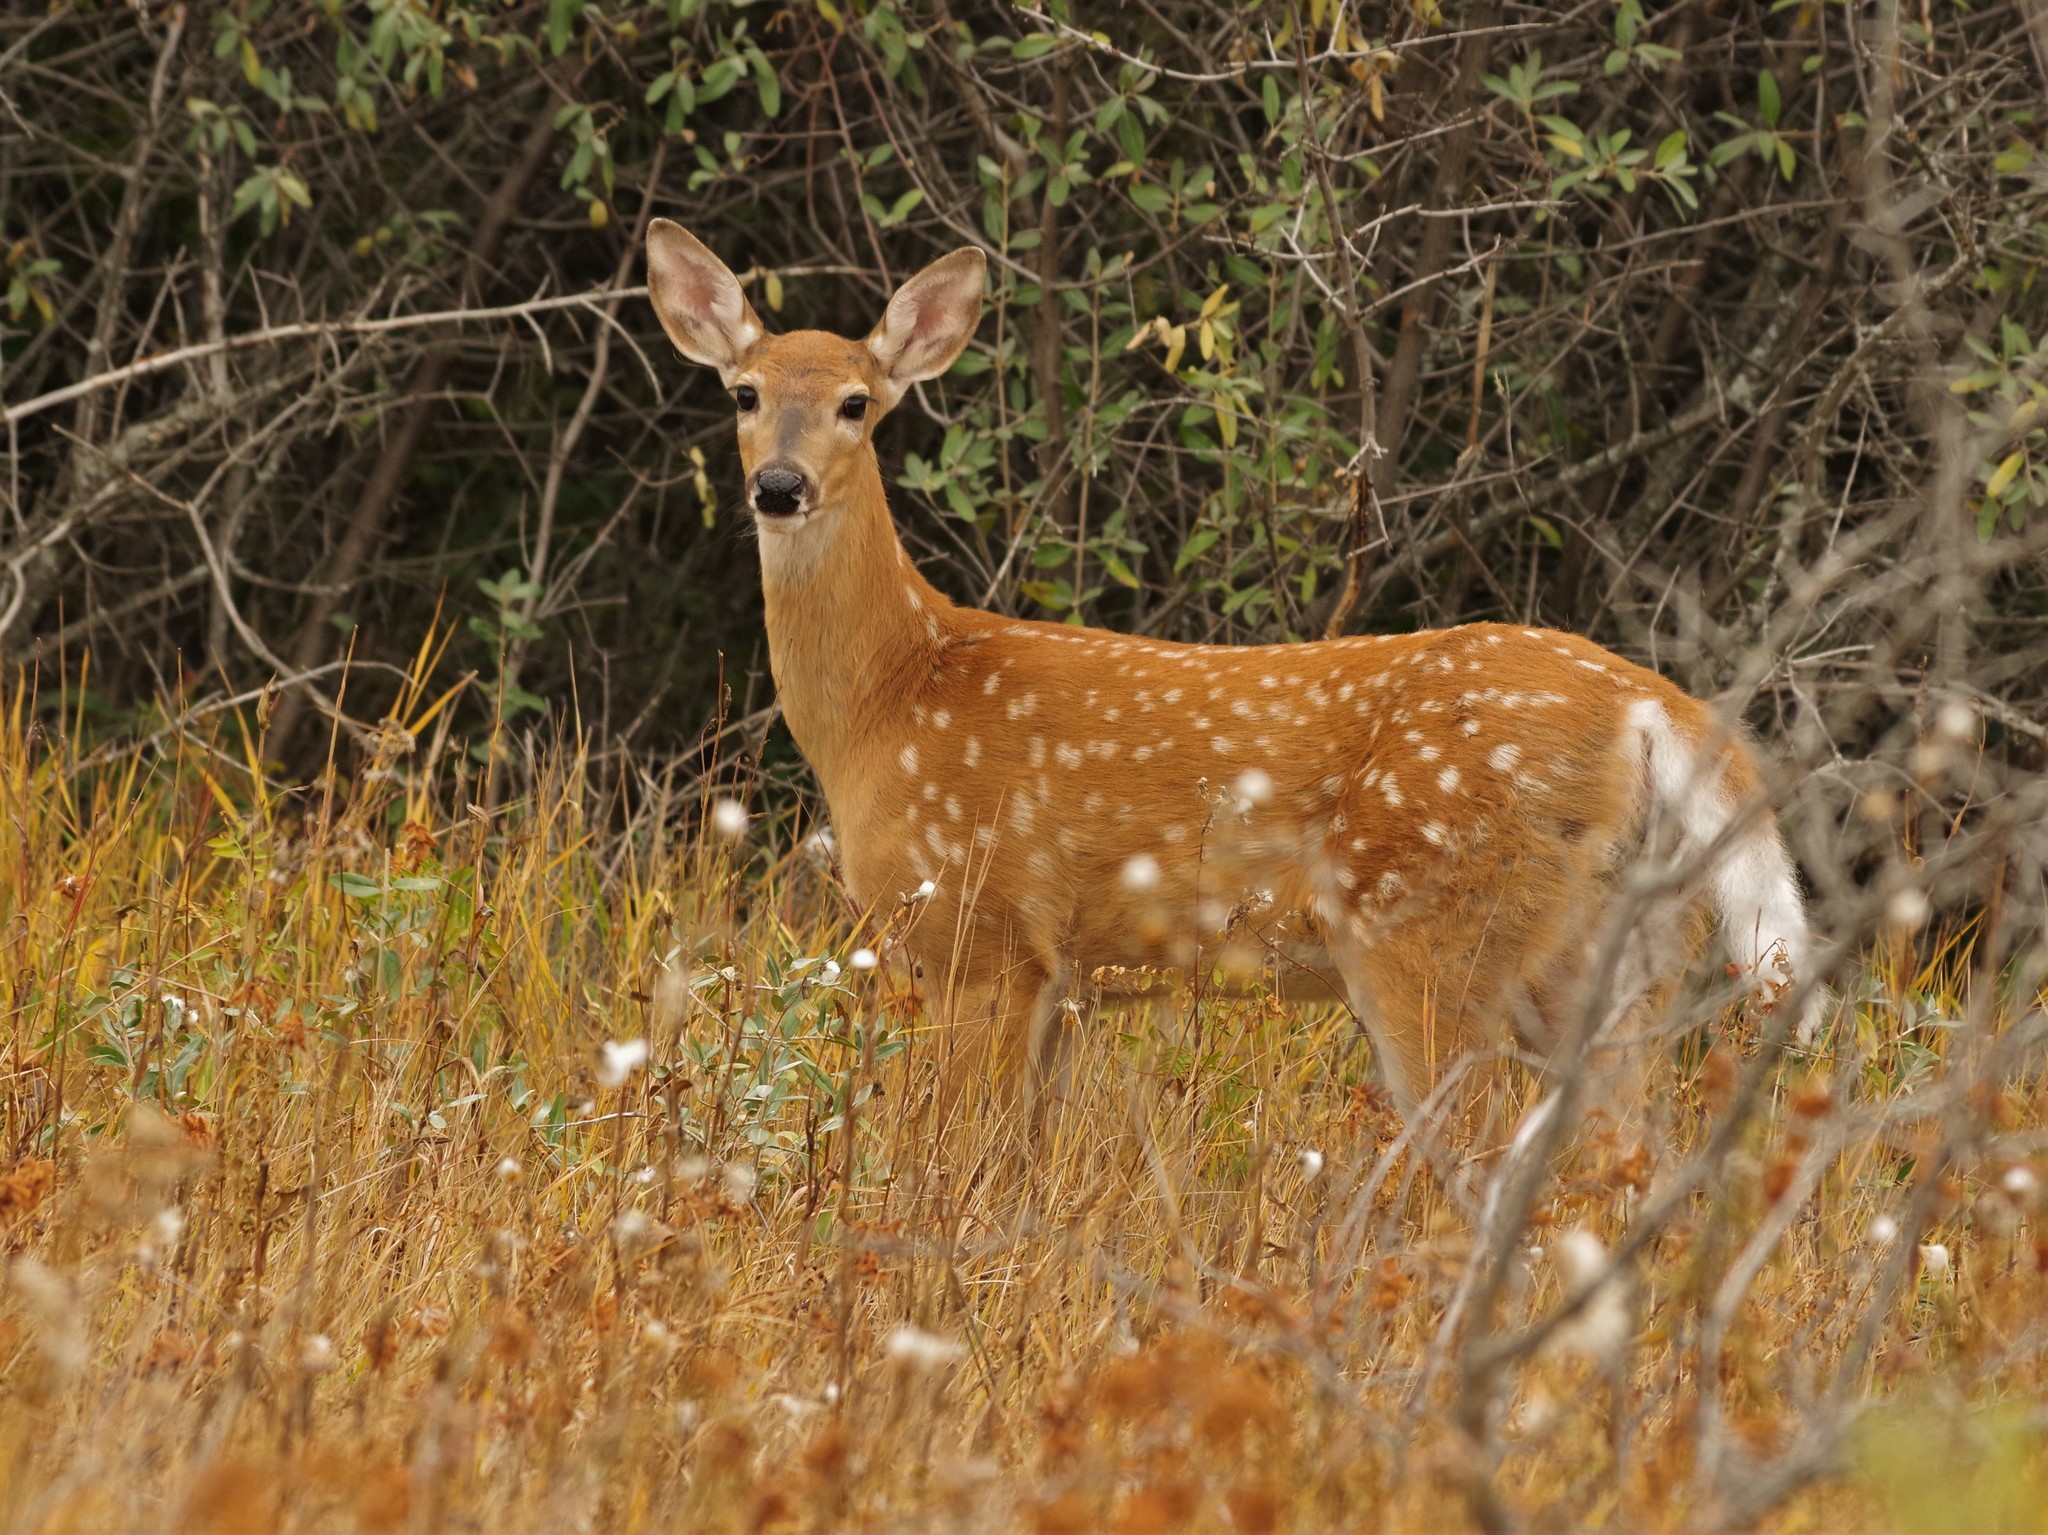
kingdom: Animalia
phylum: Chordata
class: Mammalia
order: Artiodactyla
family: Cervidae
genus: Odocoileus
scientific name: Odocoileus virginianus
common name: White-tailed deer
